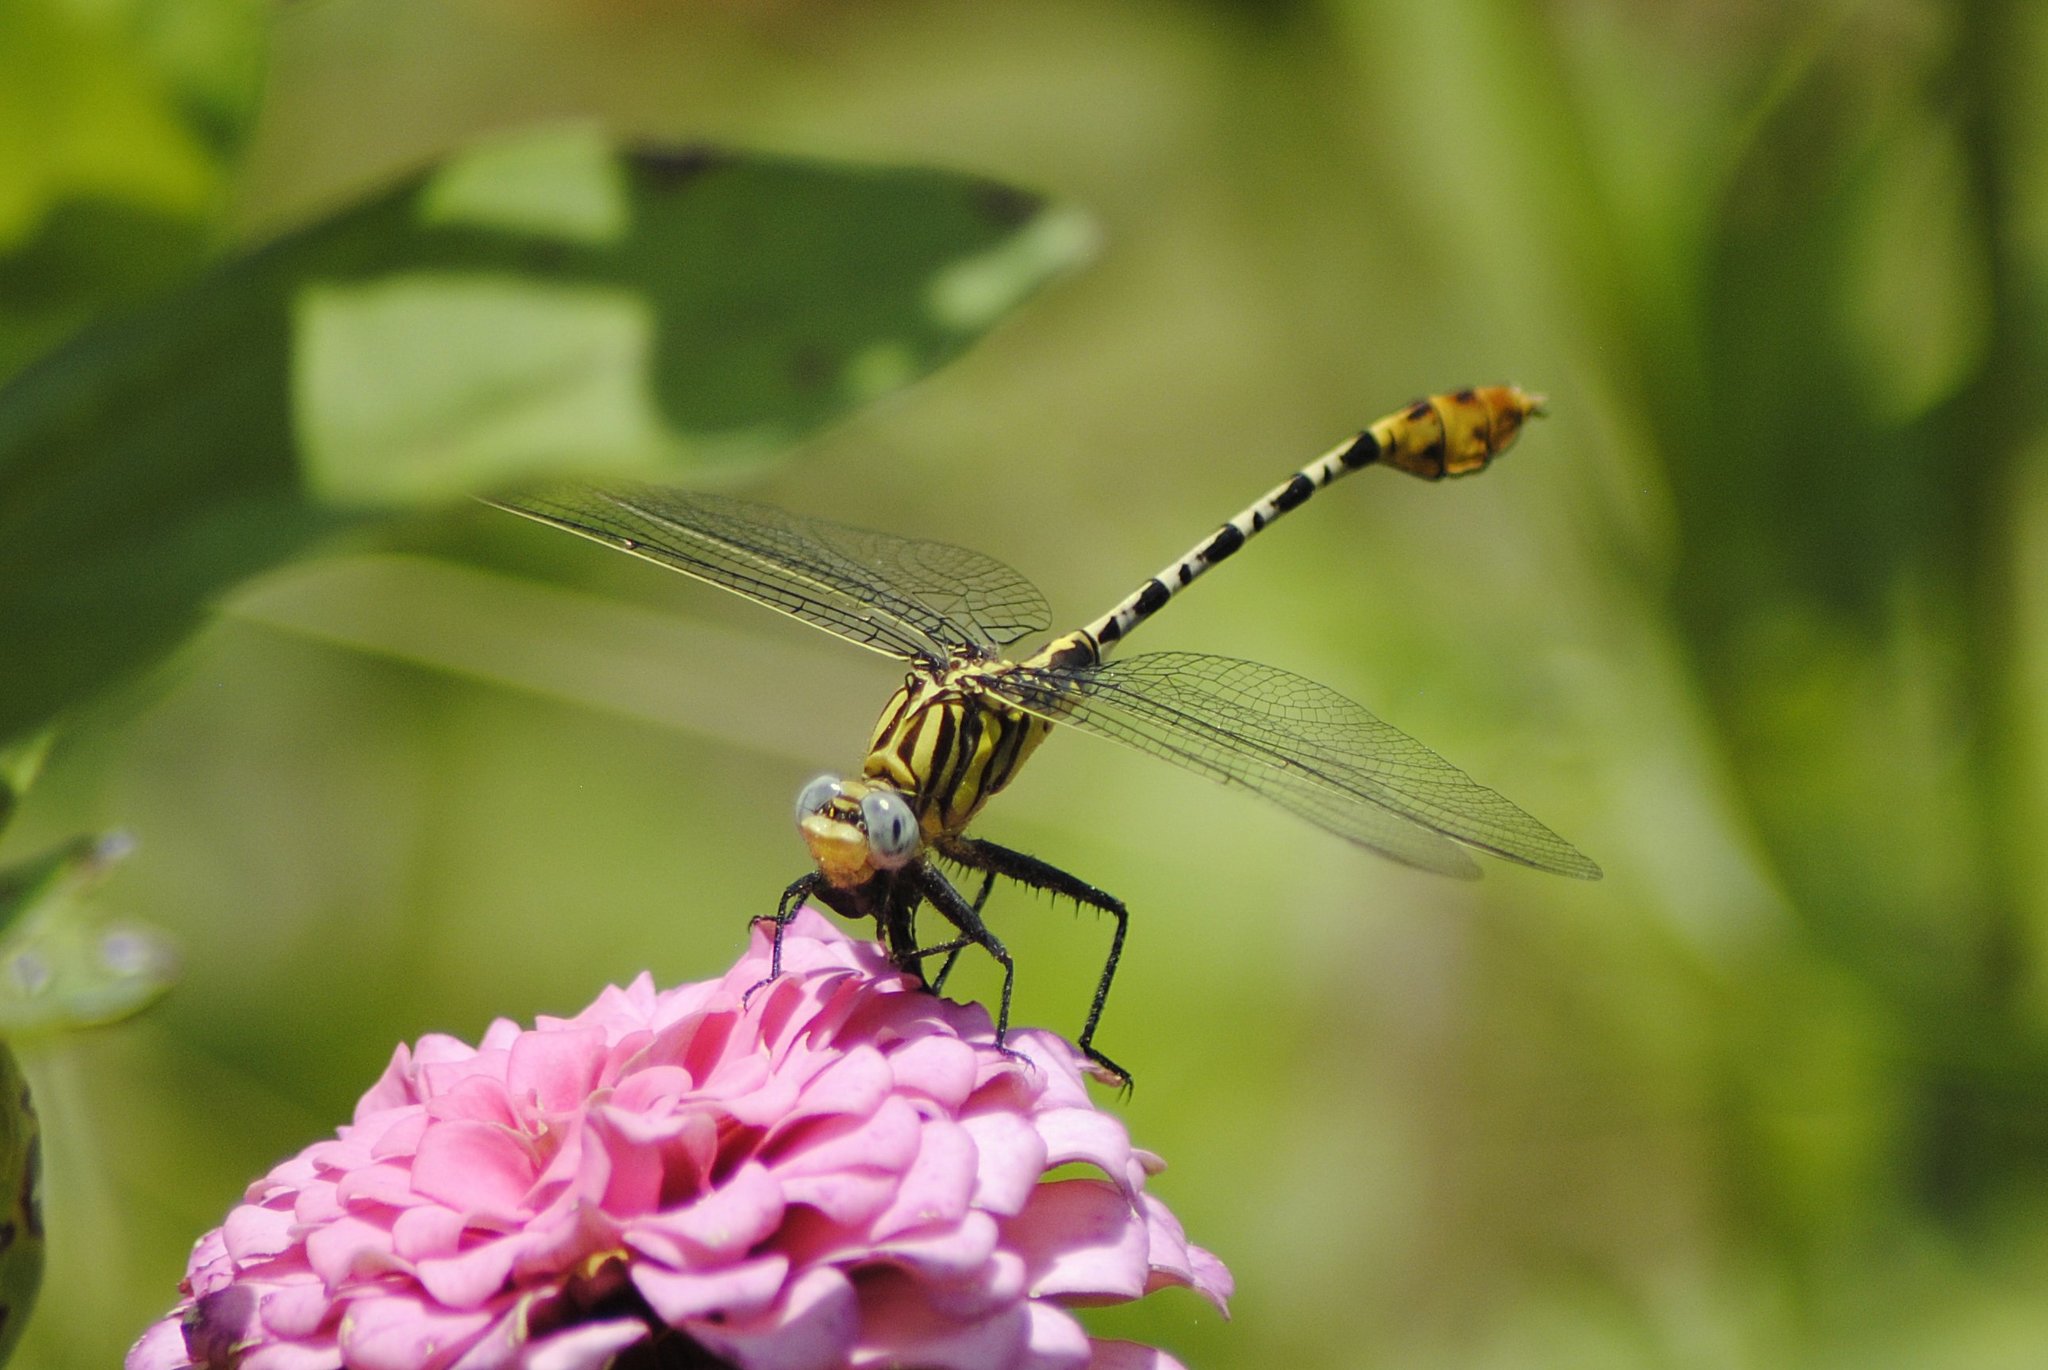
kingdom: Animalia
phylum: Arthropoda
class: Insecta
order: Odonata
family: Gomphidae
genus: Dromogomphus
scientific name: Dromogomphus spoliatus
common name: Flag-tailed spinyleg
